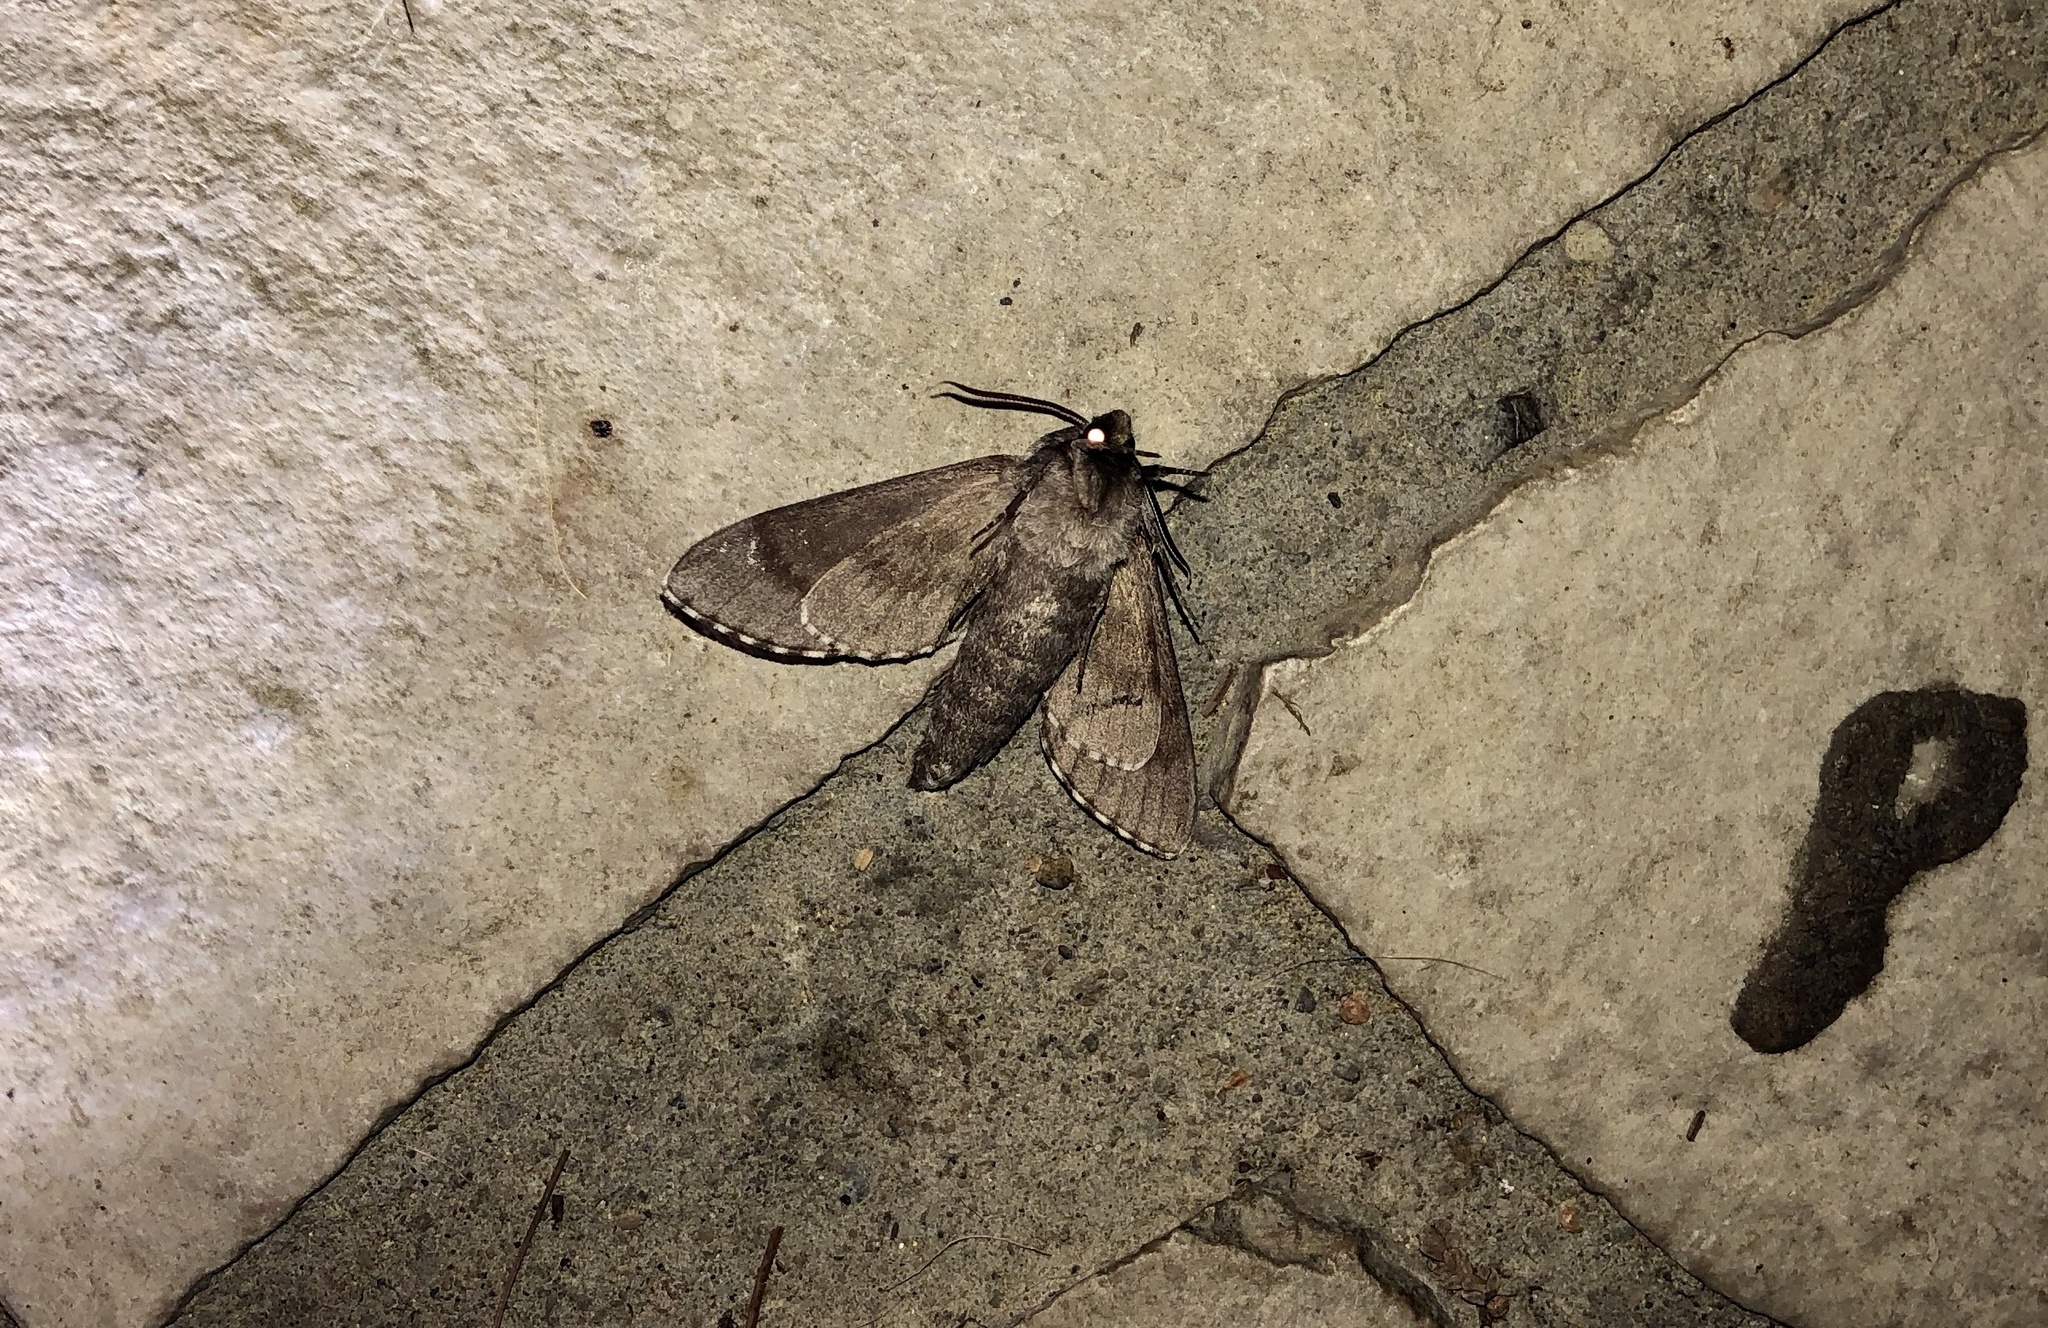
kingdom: Animalia
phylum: Arthropoda
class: Insecta
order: Lepidoptera
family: Sphingidae
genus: Lapara
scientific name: Lapara bombycoides
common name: Northern pine sphinx
